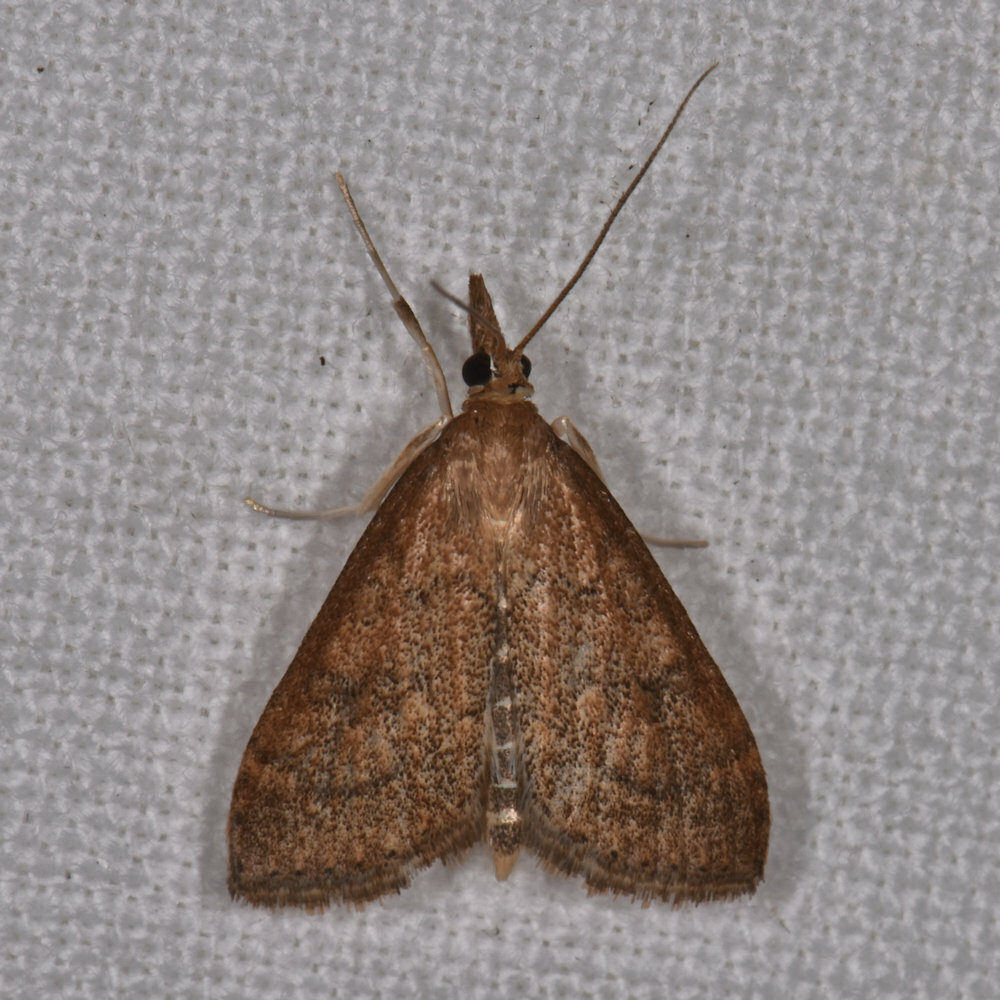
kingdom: Animalia
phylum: Arthropoda
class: Insecta
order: Lepidoptera
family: Crambidae
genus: Udea
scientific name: Udea rubigalis
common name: Celery leaftier moth
